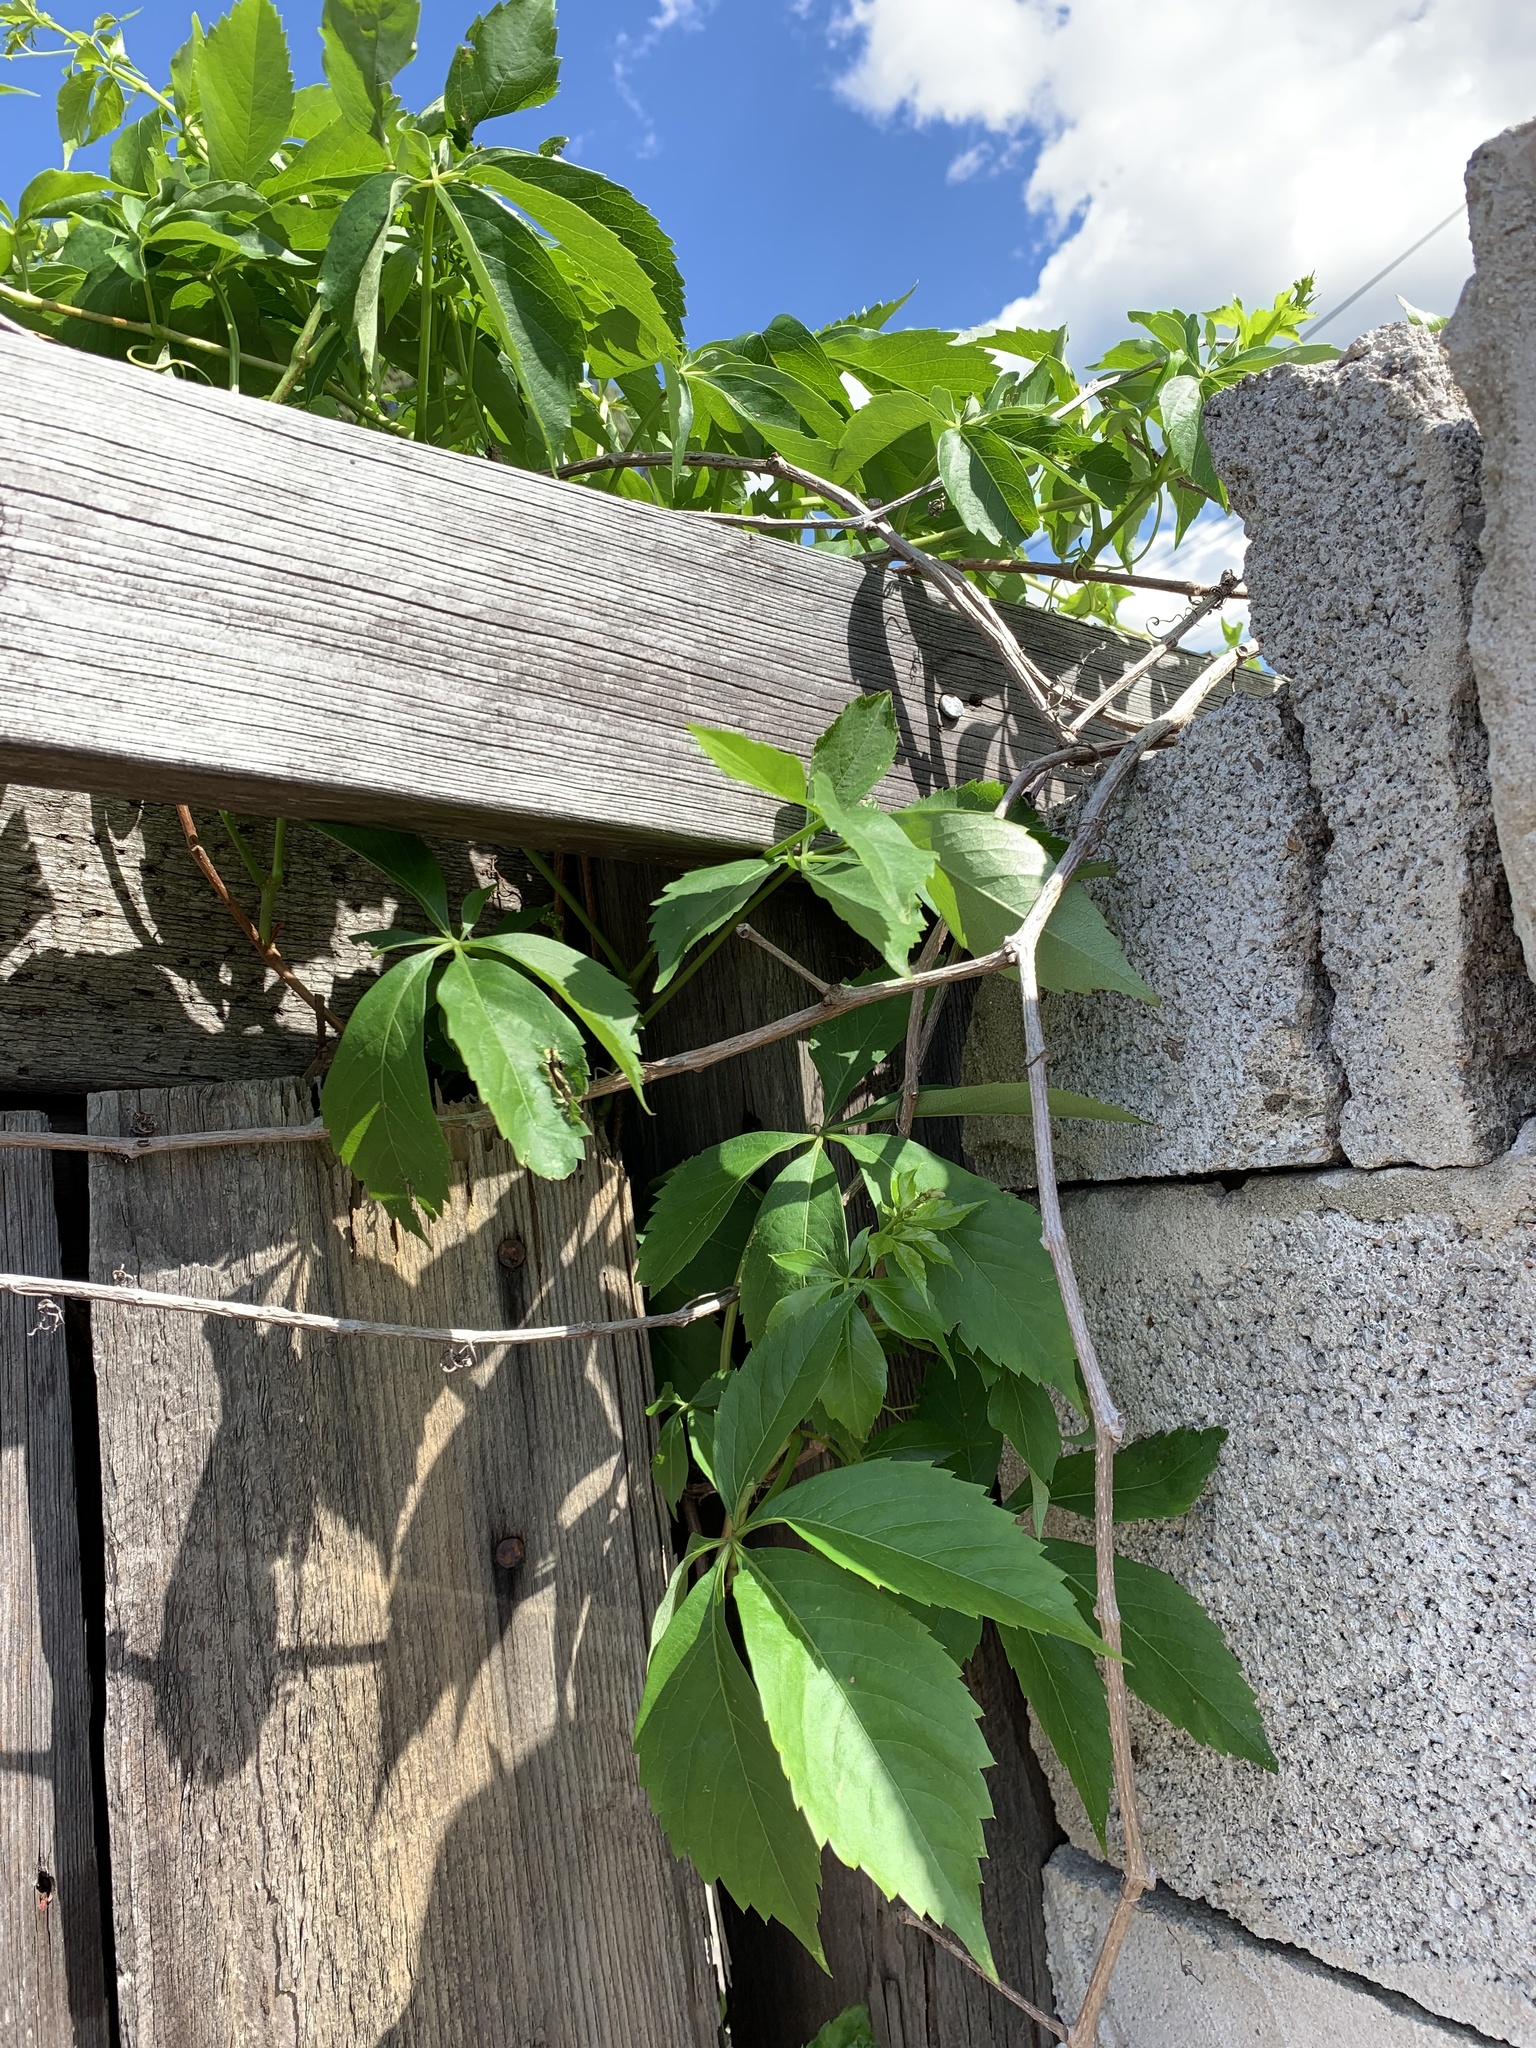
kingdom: Plantae
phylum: Tracheophyta
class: Magnoliopsida
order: Vitales
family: Vitaceae
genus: Parthenocissus
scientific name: Parthenocissus quinquefolia
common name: Virginia-creeper
